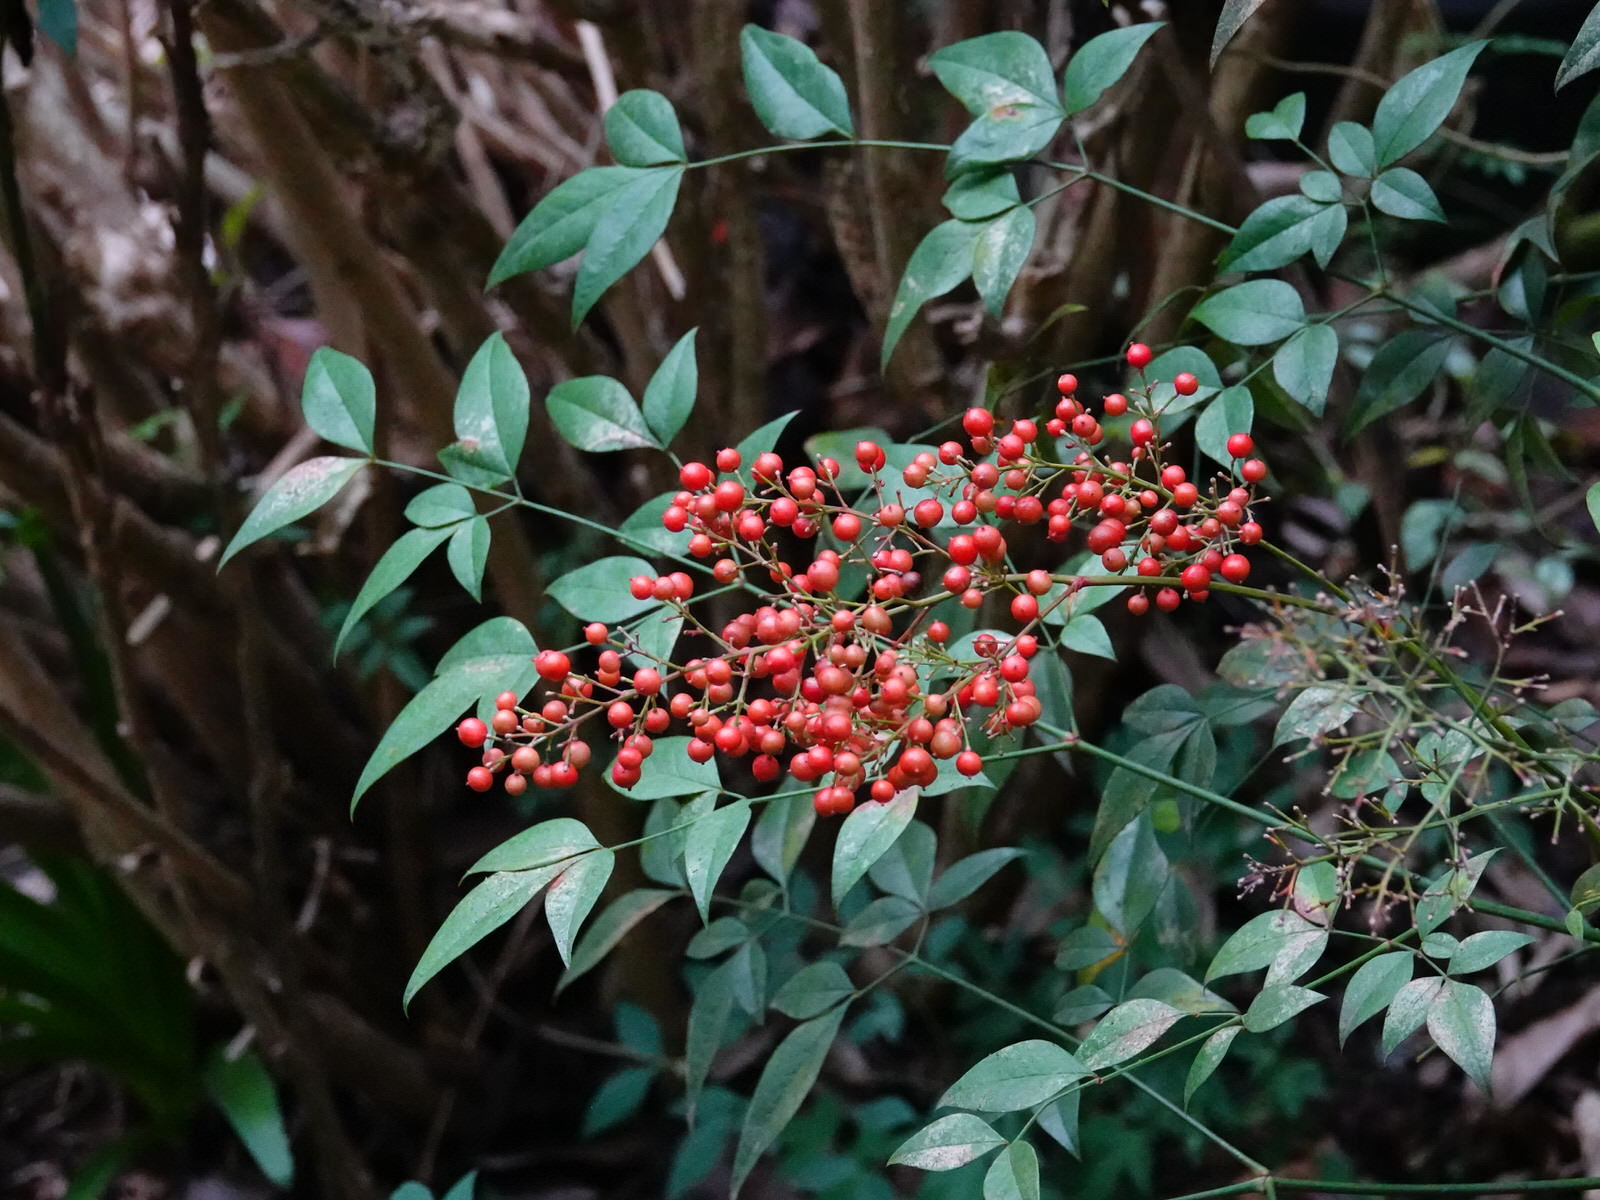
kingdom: Plantae
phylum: Tracheophyta
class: Magnoliopsida
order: Ranunculales
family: Berberidaceae
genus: Nandina
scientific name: Nandina domestica
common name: Sacred bamboo
